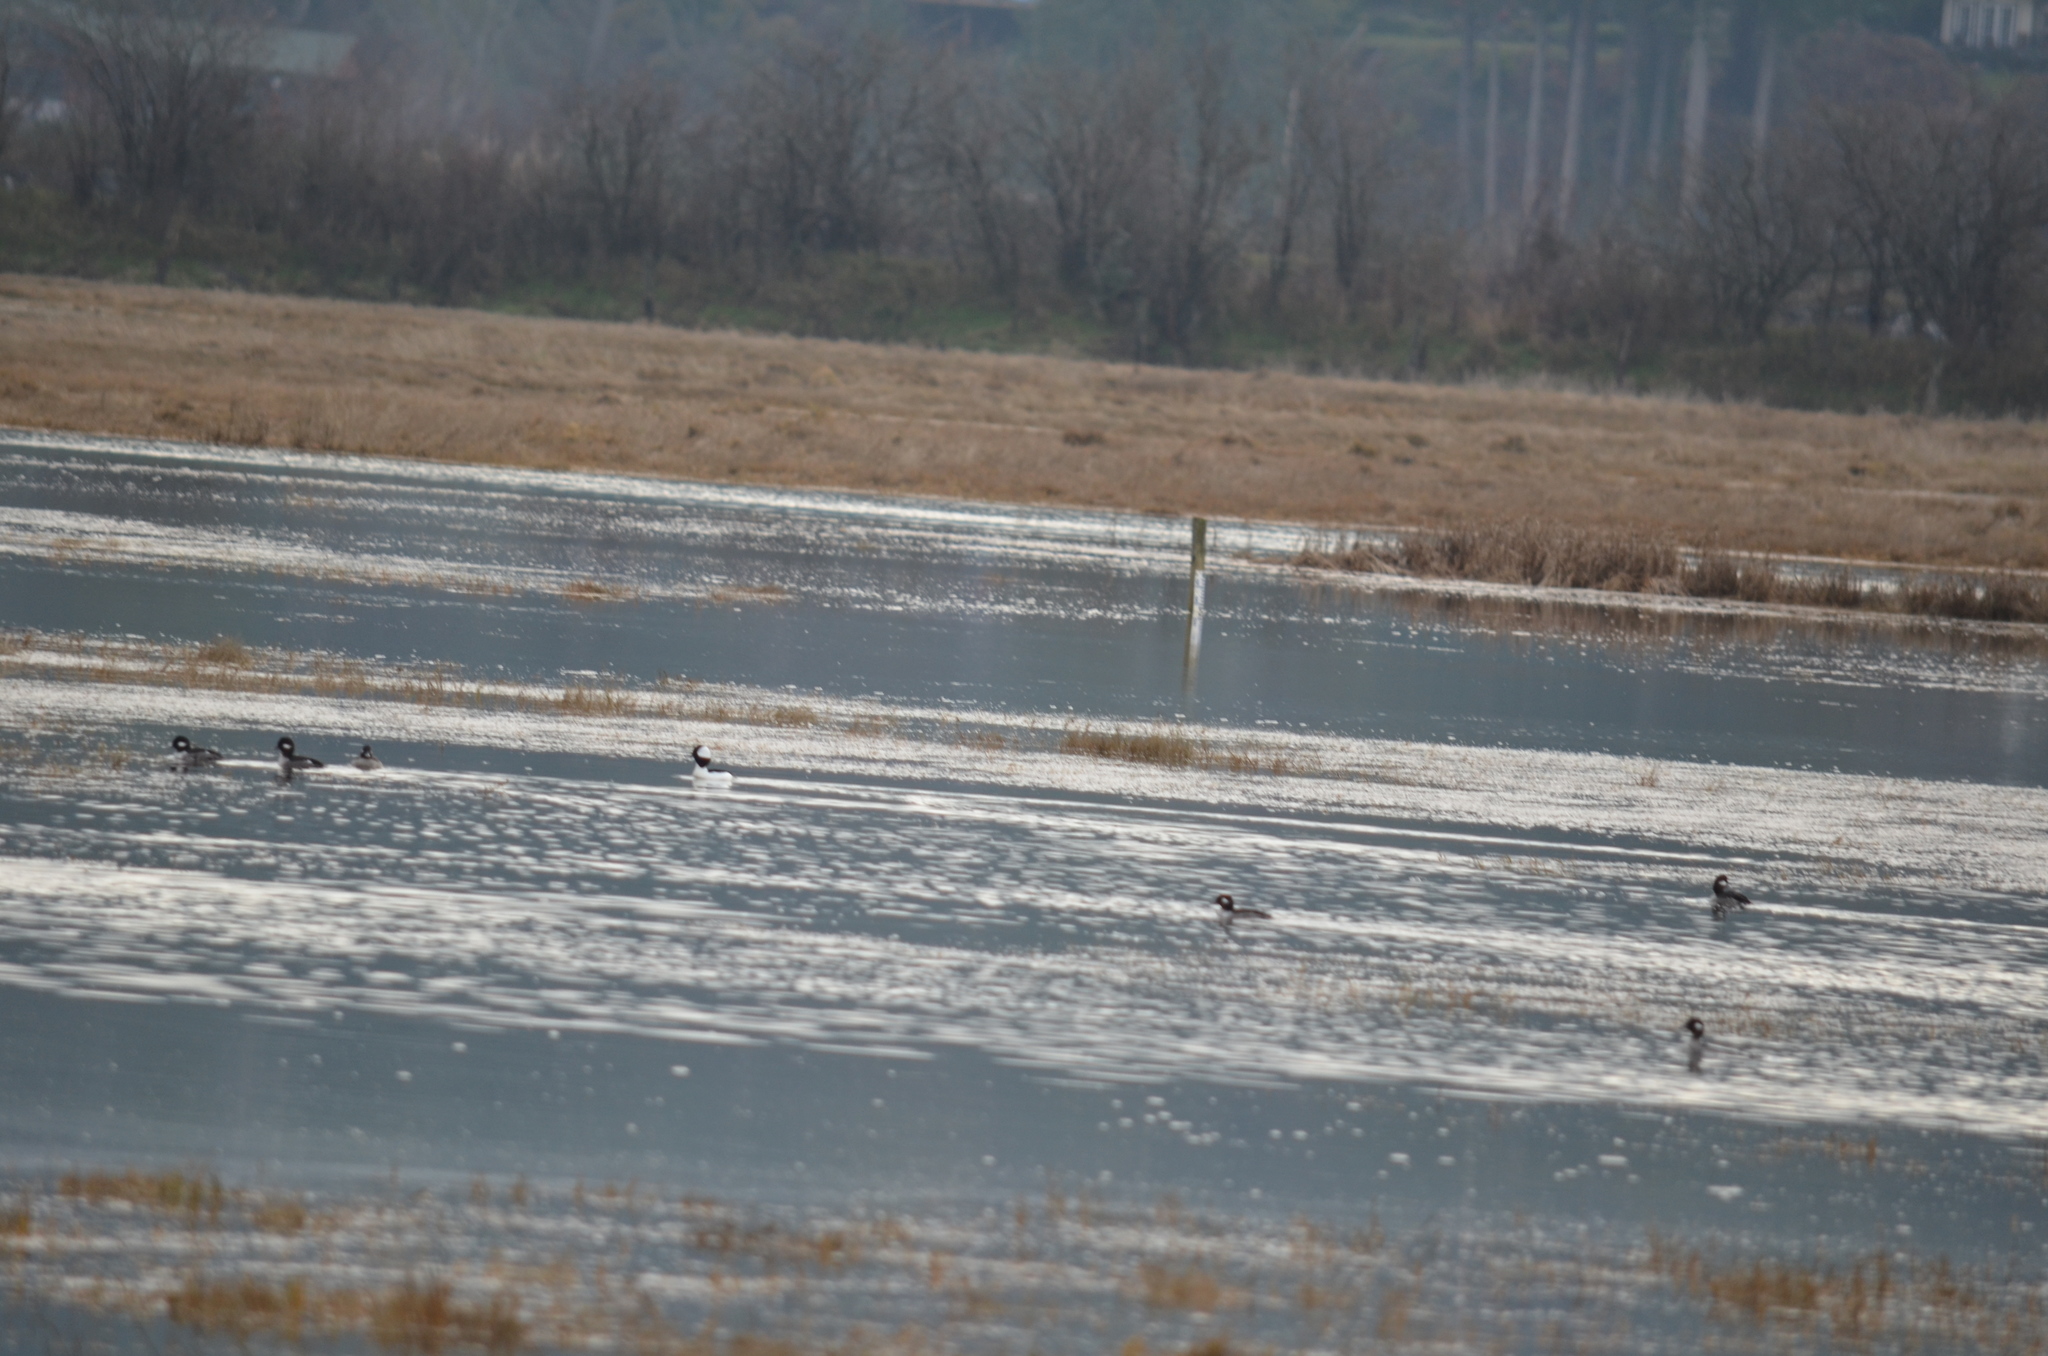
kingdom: Animalia
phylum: Chordata
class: Aves
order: Anseriformes
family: Anatidae
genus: Bucephala
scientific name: Bucephala albeola
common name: Bufflehead
